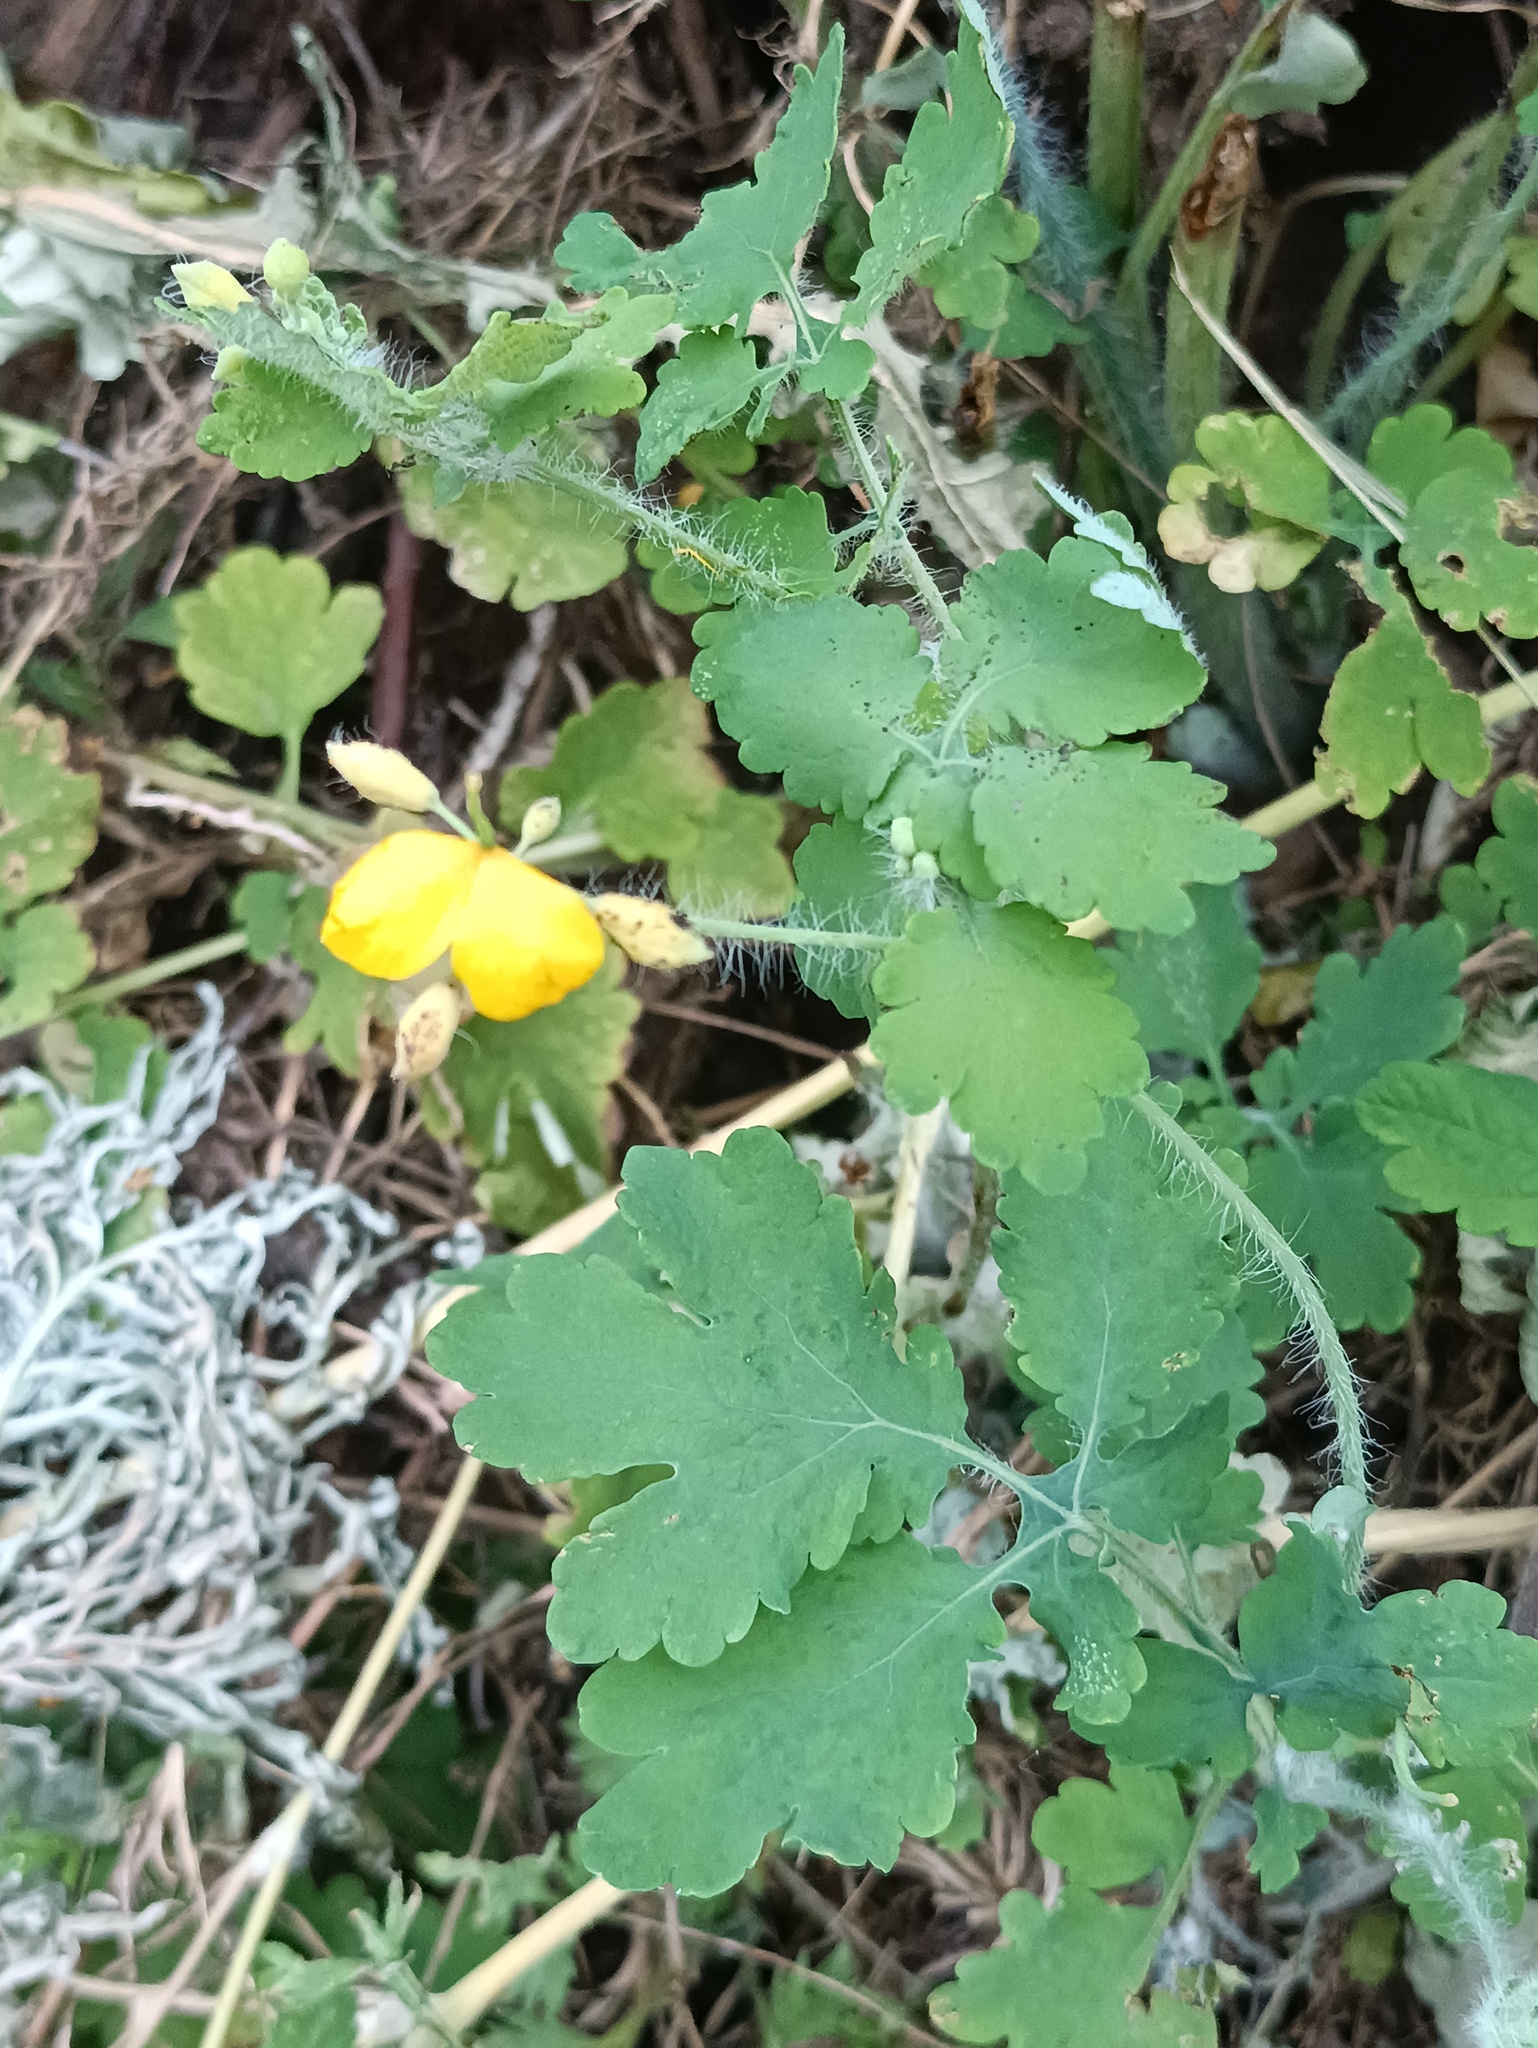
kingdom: Plantae
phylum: Tracheophyta
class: Magnoliopsida
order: Ranunculales
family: Papaveraceae
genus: Chelidonium
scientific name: Chelidonium majus
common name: Greater celandine
